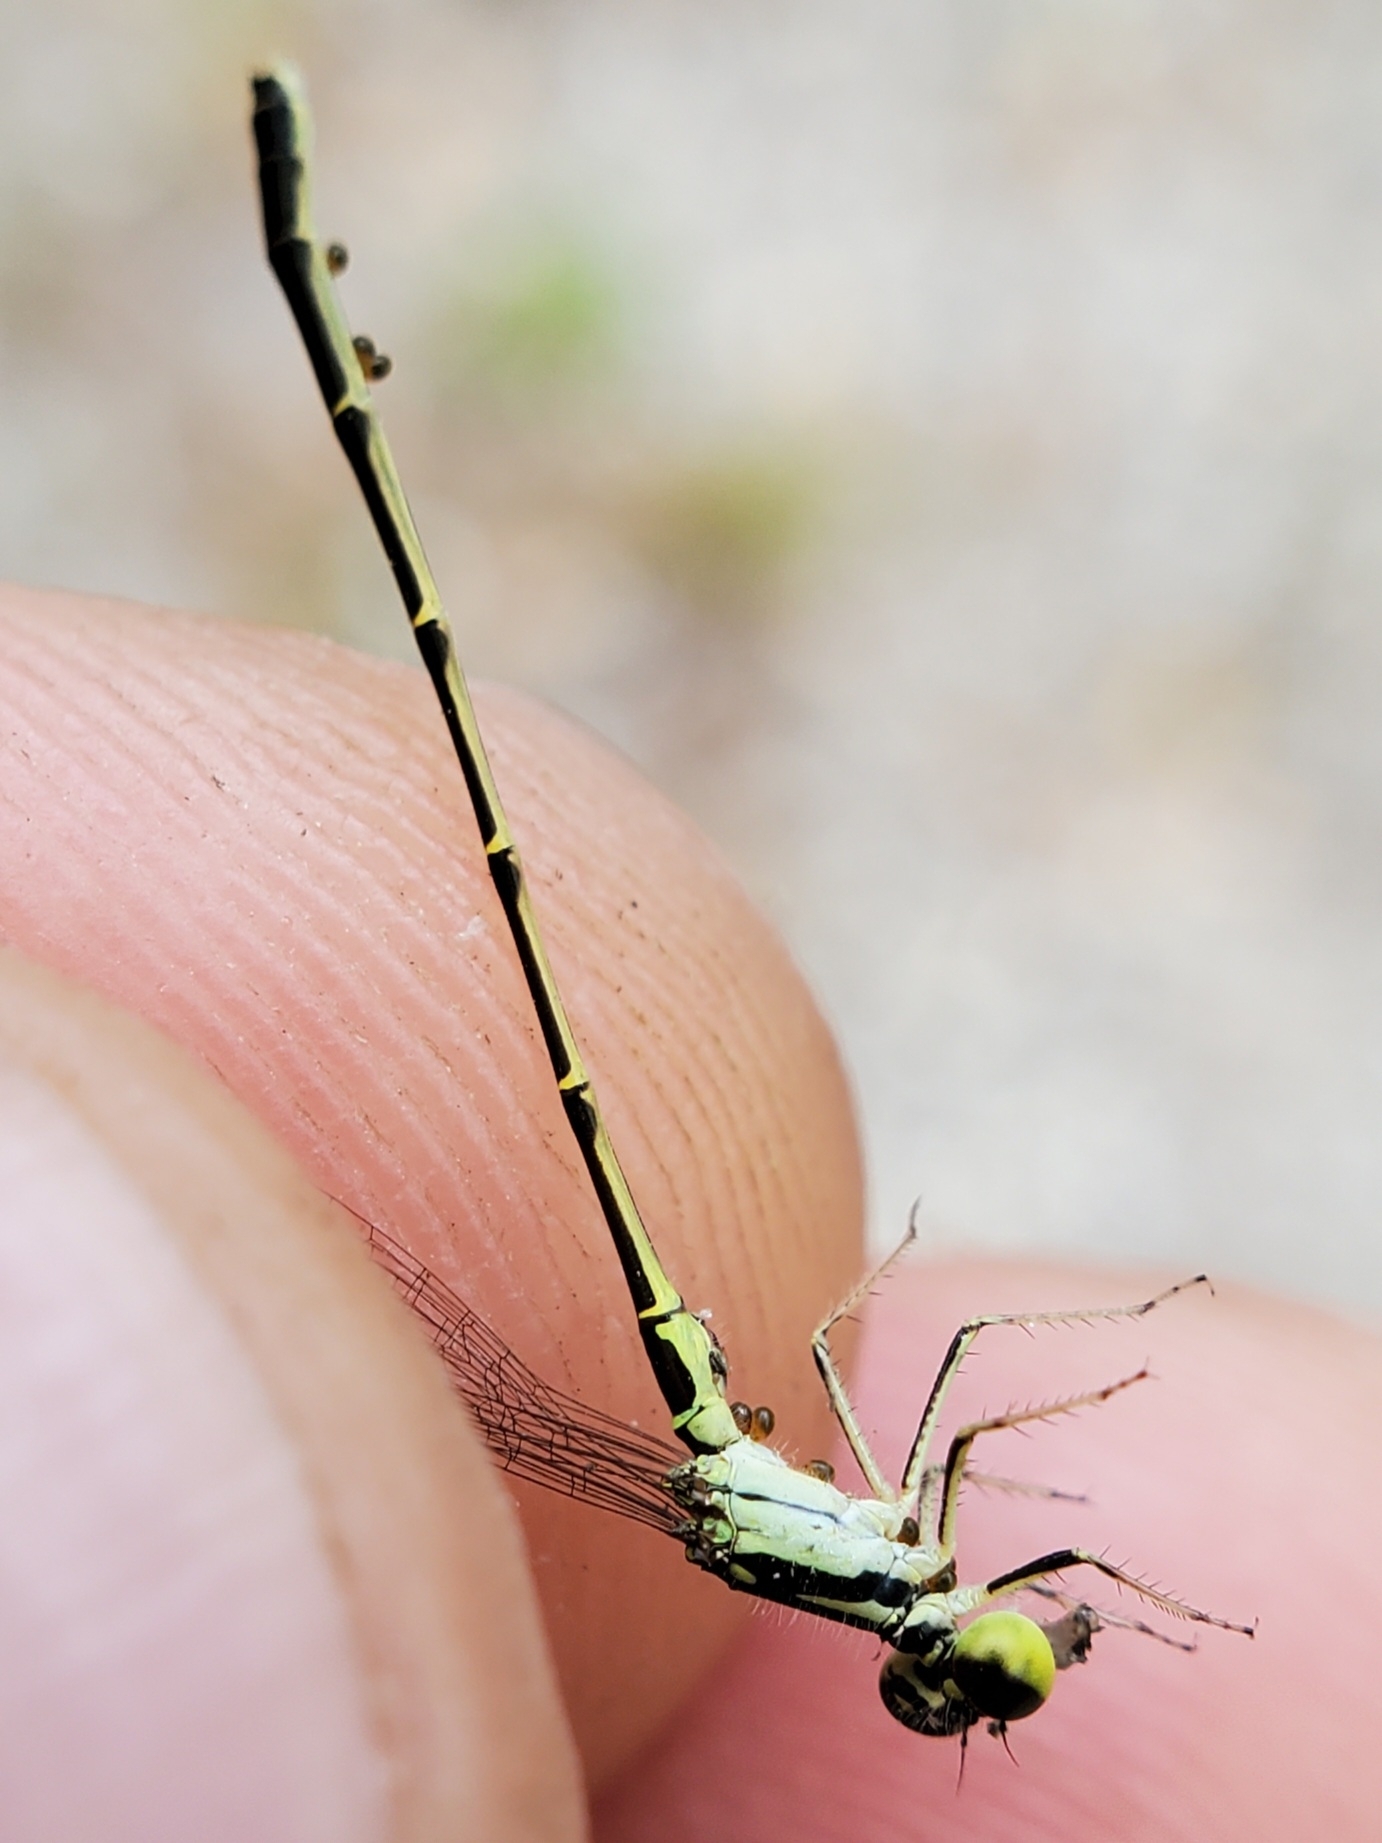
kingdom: Animalia
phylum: Arthropoda
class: Insecta
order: Odonata
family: Coenagrionidae
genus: Ischnura
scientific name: Ischnura posita
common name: Fragile forktail
